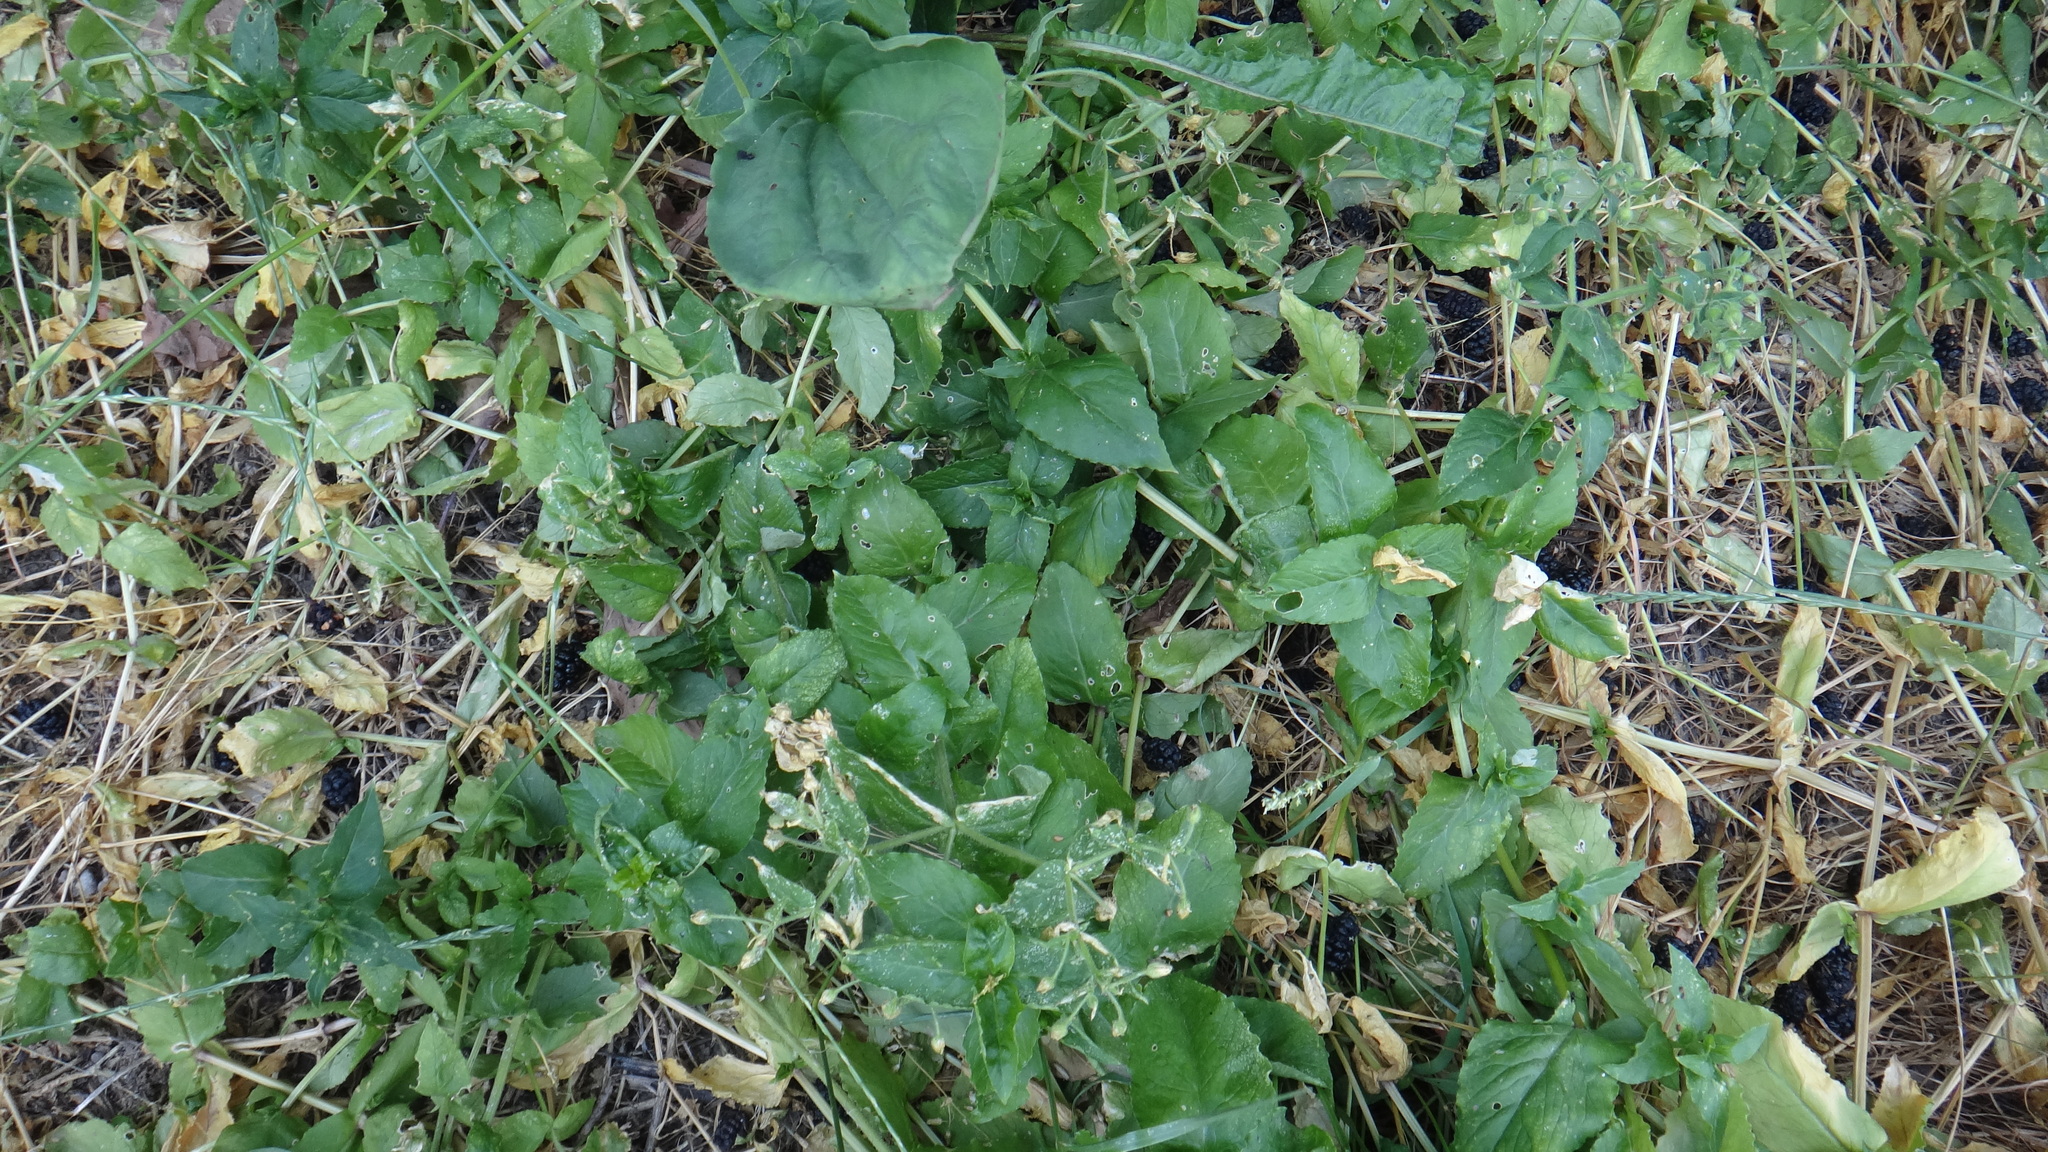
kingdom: Plantae
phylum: Tracheophyta
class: Magnoliopsida
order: Caryophyllales
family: Caryophyllaceae
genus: Stellaria
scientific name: Stellaria aquatica
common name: Water chickweed
